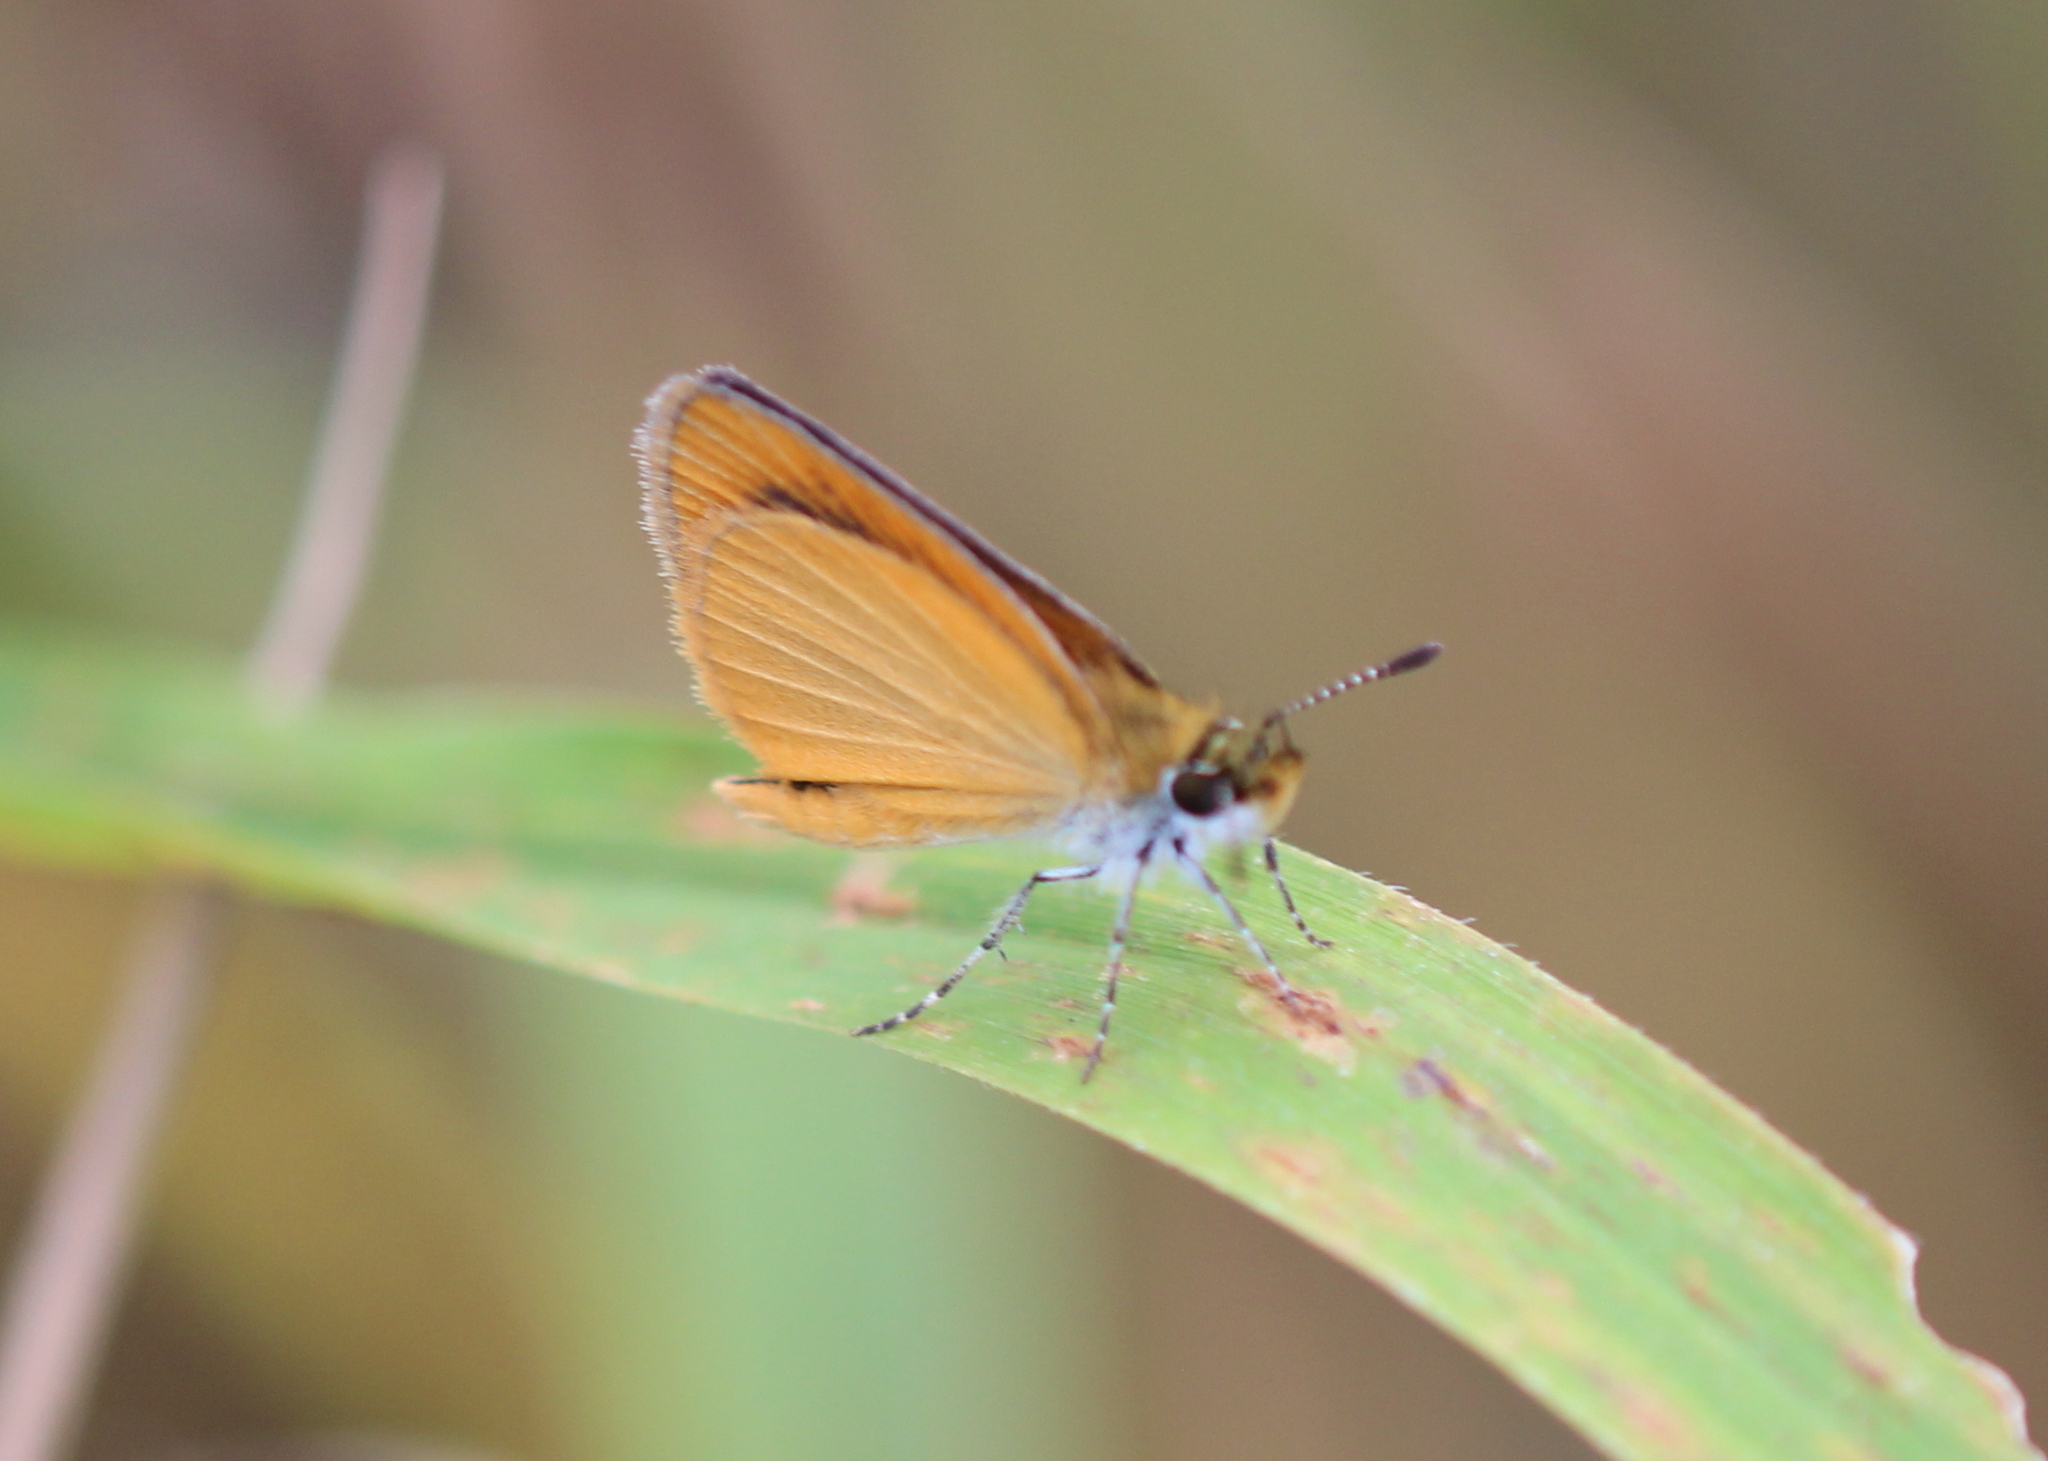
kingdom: Animalia
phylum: Arthropoda
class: Insecta
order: Lepidoptera
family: Hesperiidae
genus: Ancyloxypha
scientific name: Ancyloxypha numitor
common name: Least skipper
